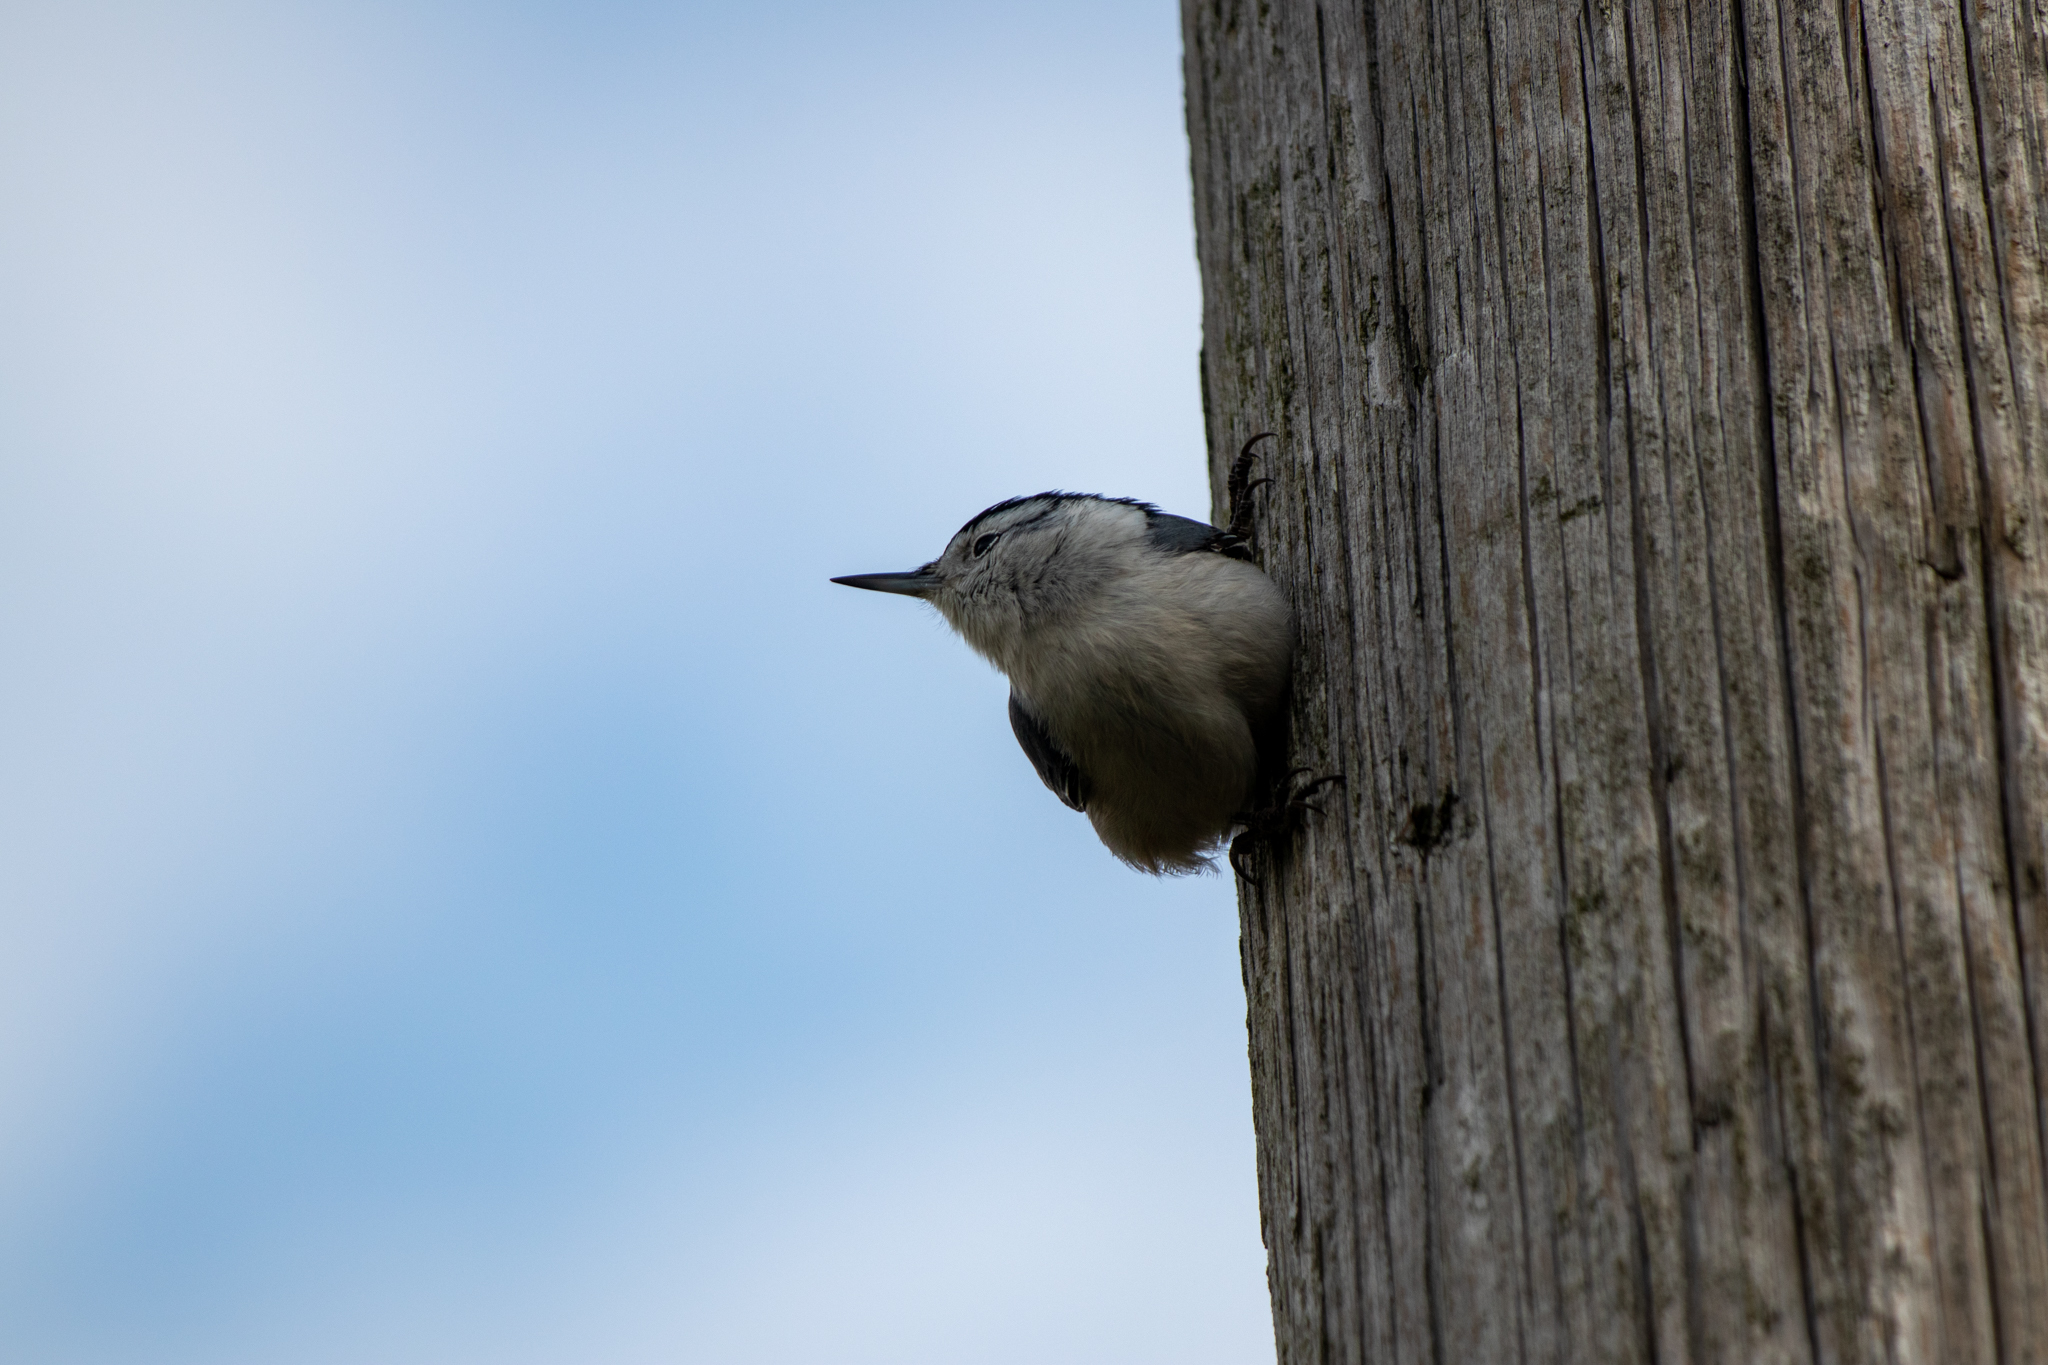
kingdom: Animalia
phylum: Chordata
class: Aves
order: Passeriformes
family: Sittidae
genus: Sitta
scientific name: Sitta carolinensis
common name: White-breasted nuthatch
